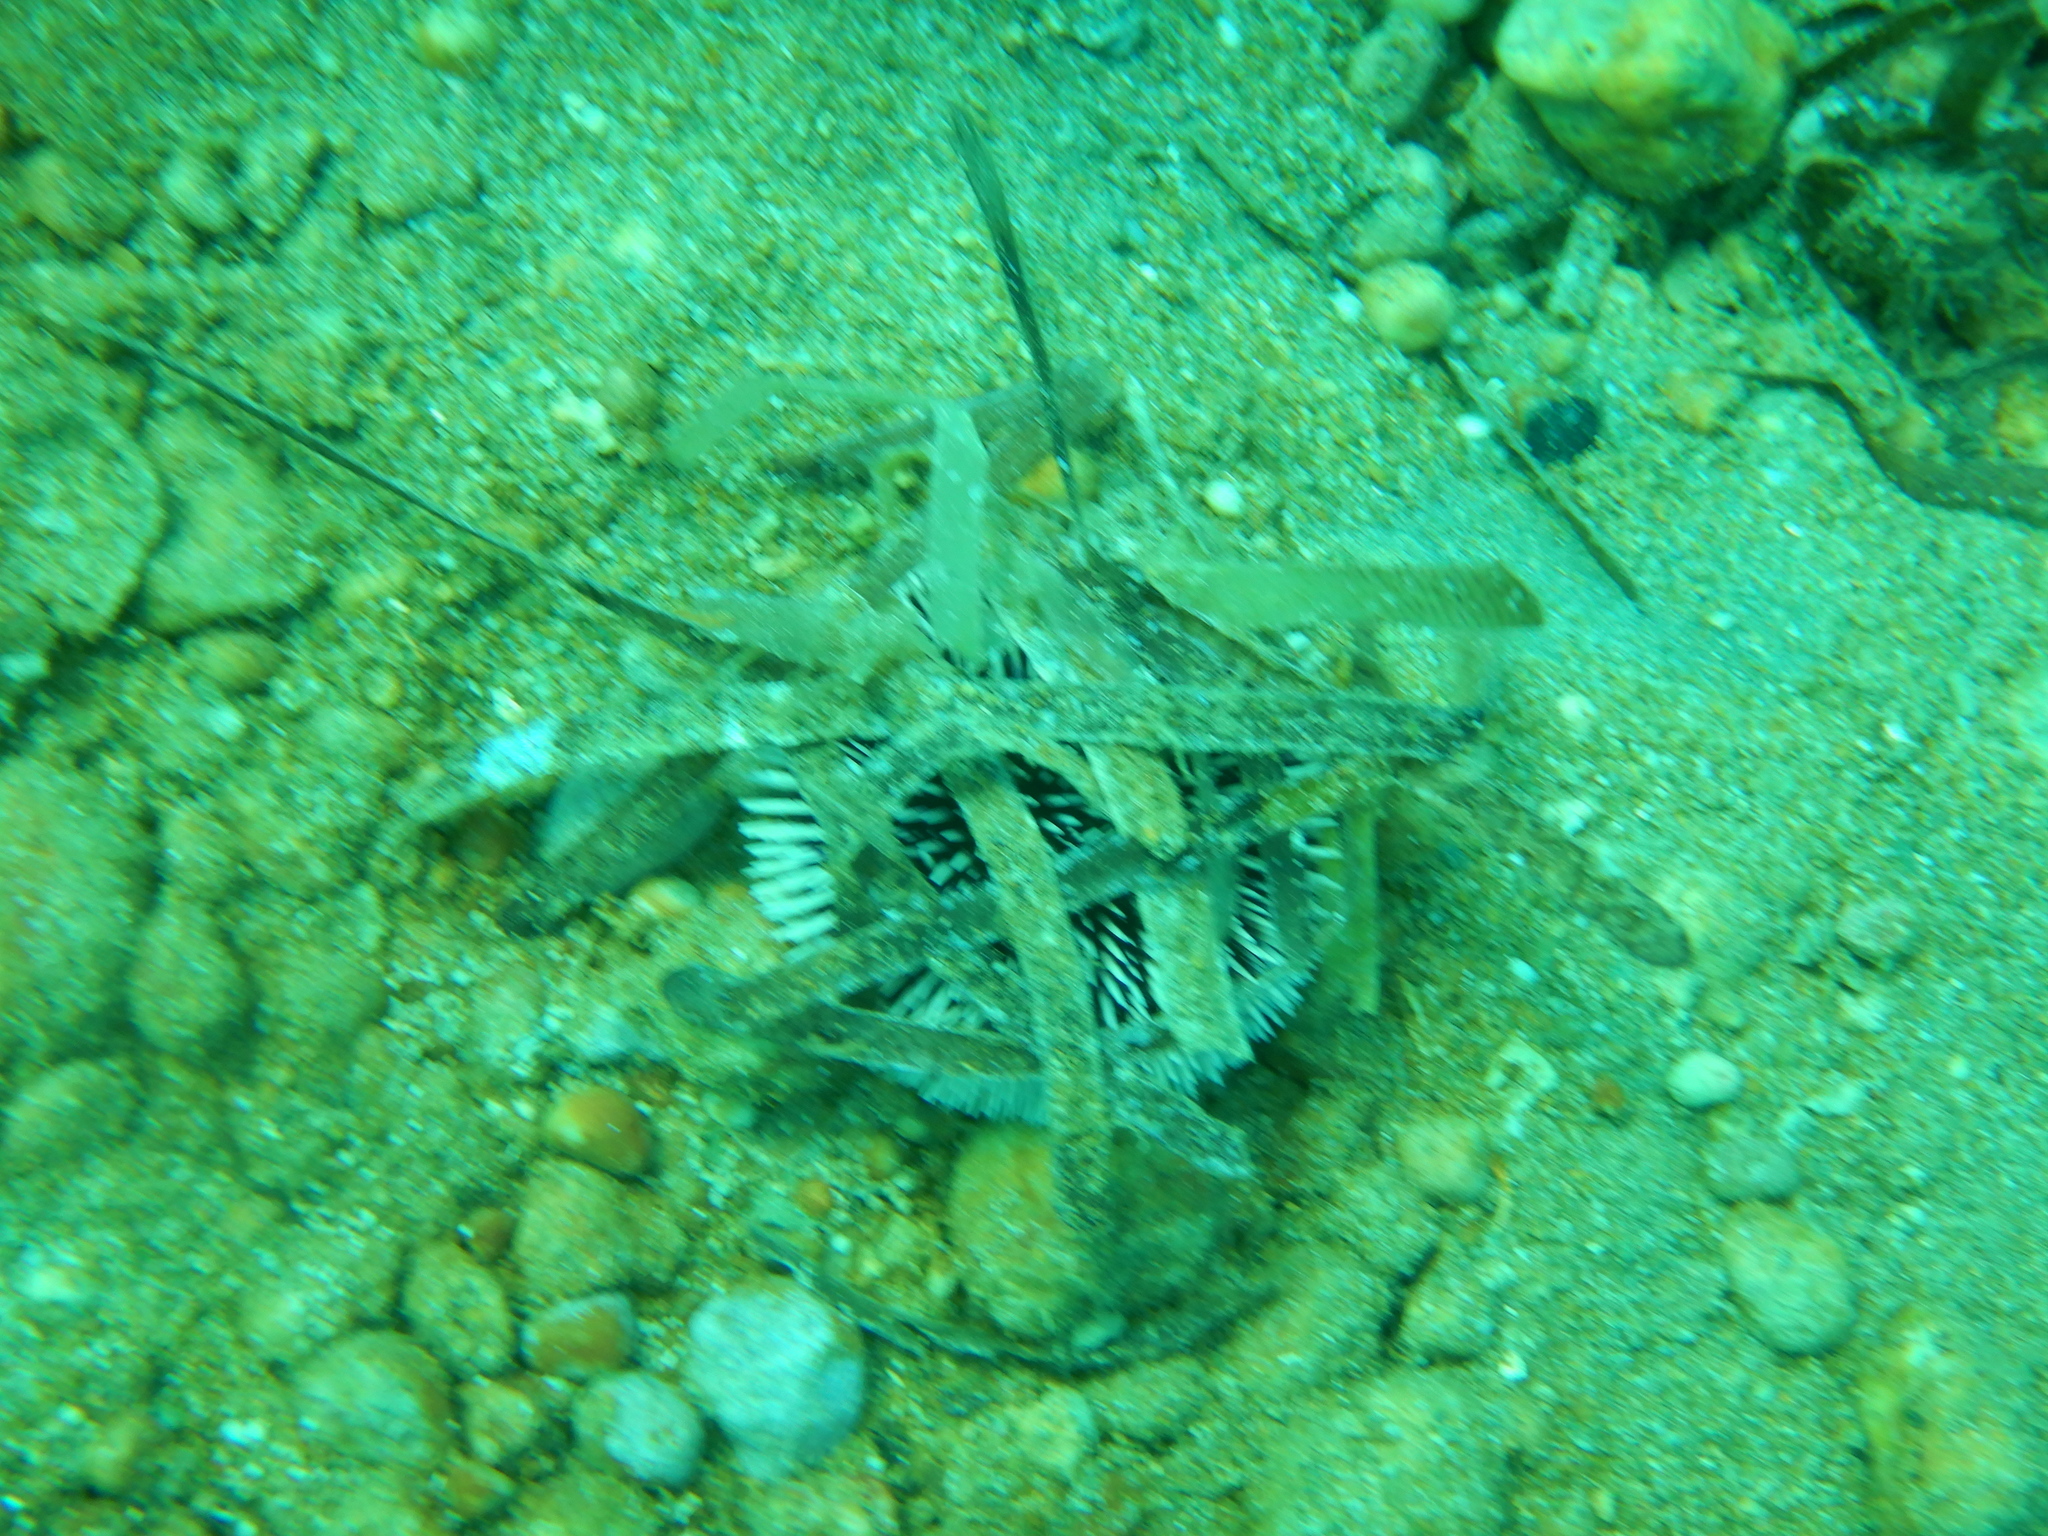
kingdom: Animalia
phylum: Echinodermata
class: Echinoidea
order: Camarodonta
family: Toxopneustidae
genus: Sphaerechinus
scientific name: Sphaerechinus granularis
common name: Violet sea urchin
